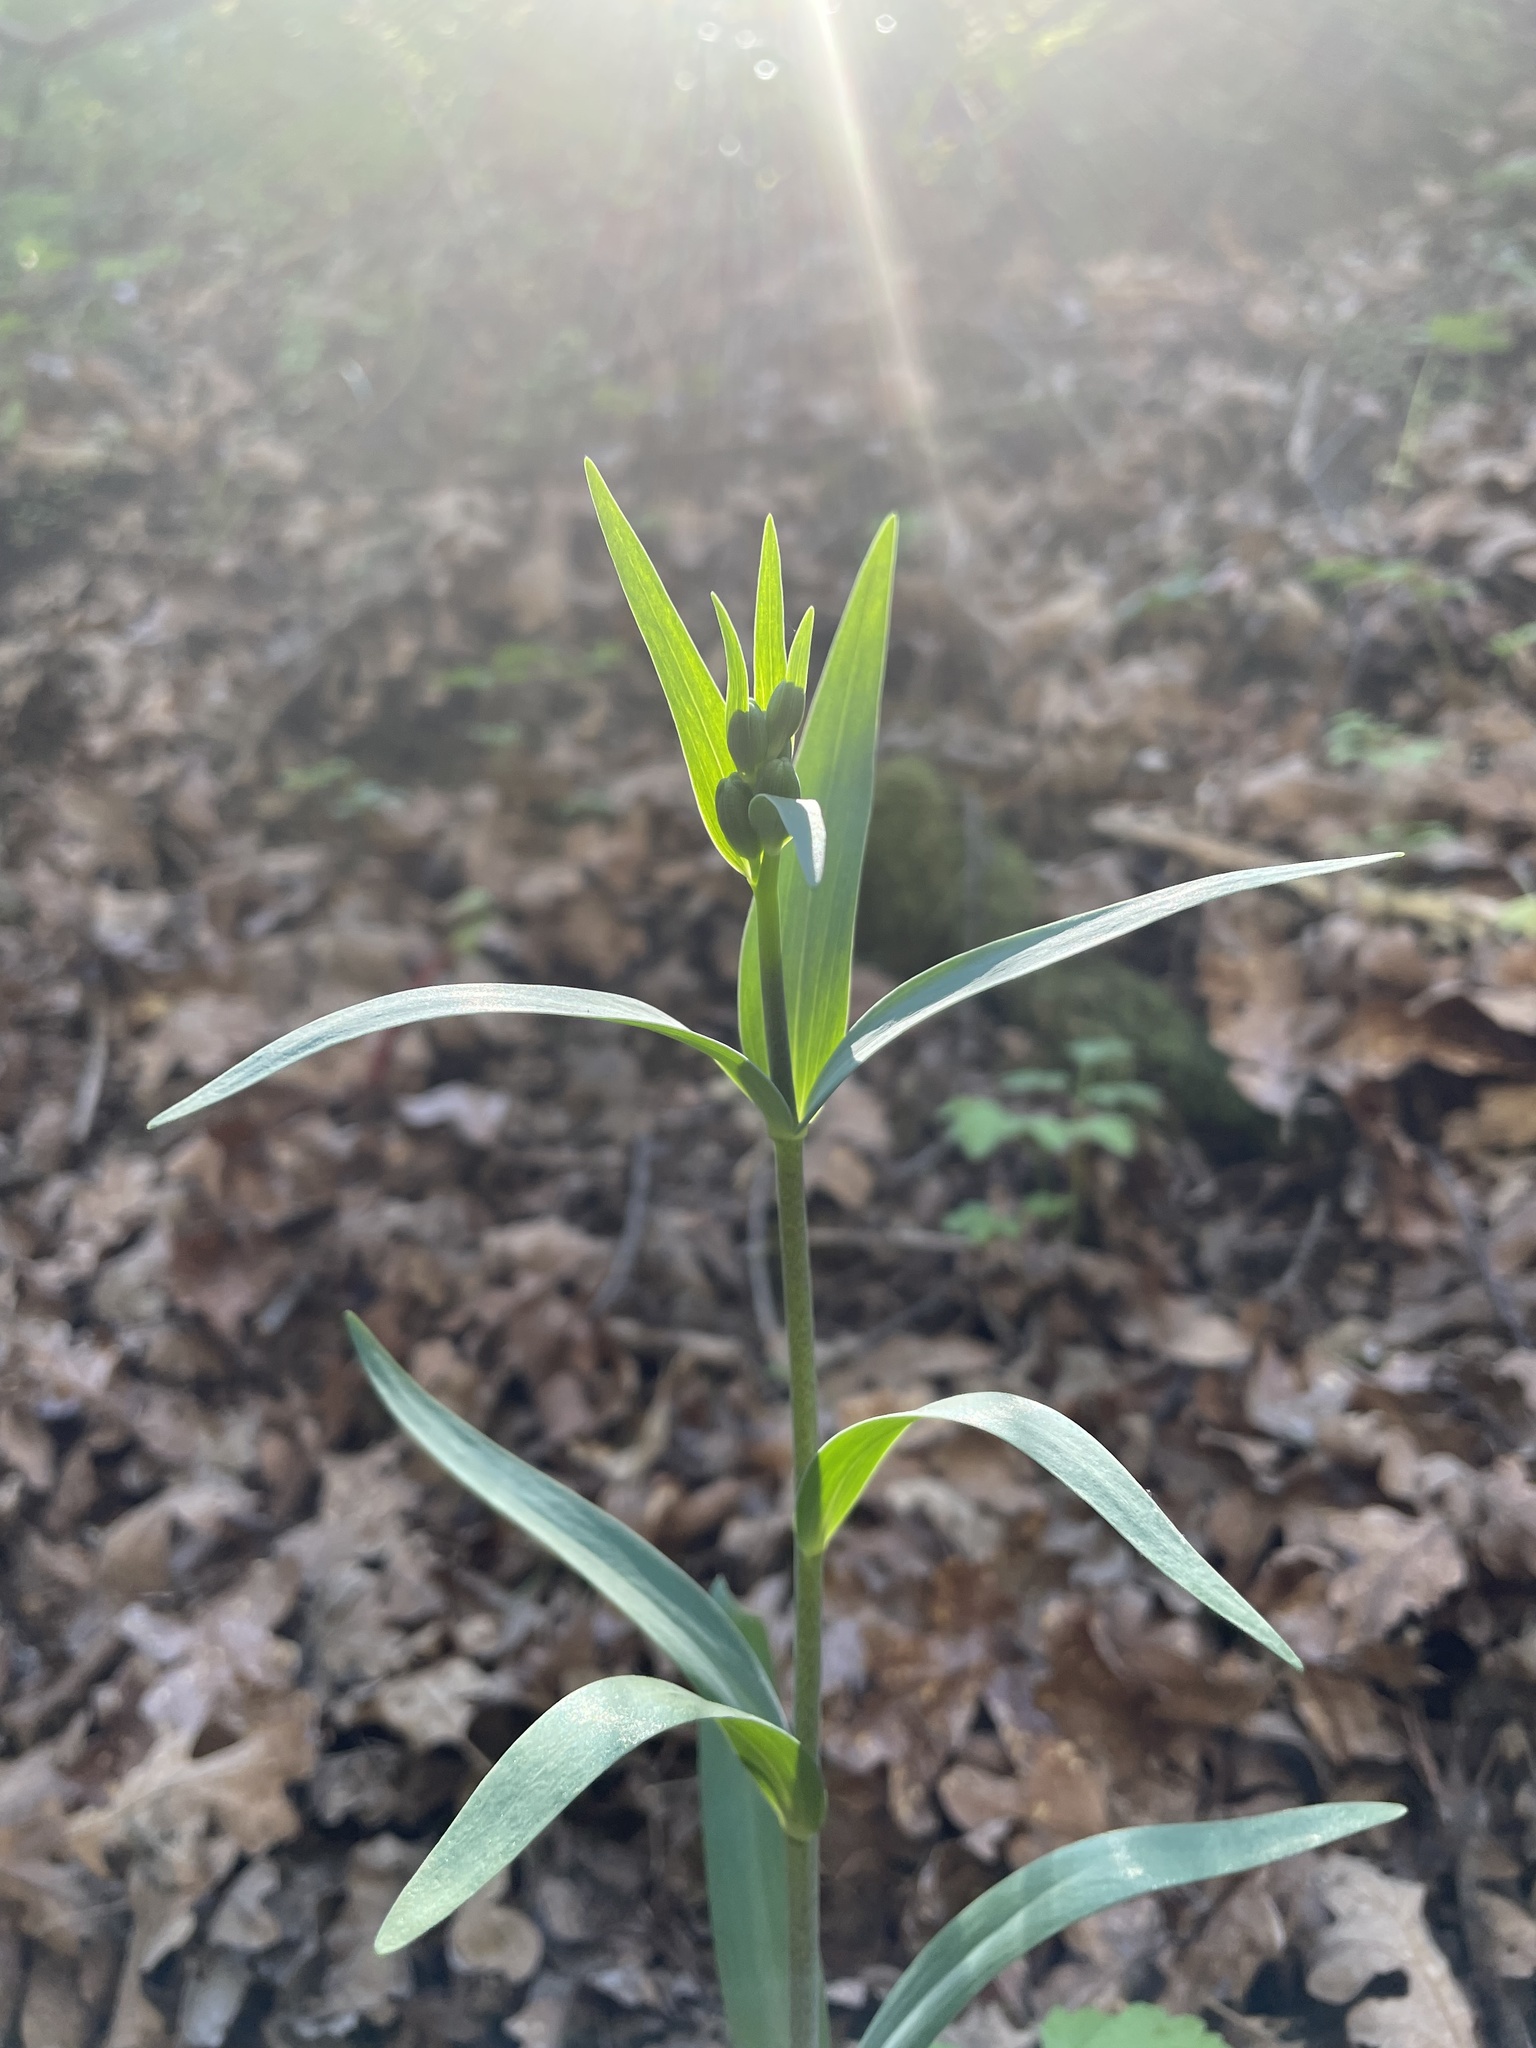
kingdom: Plantae
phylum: Tracheophyta
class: Liliopsida
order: Liliales
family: Liliaceae
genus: Fritillaria
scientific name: Fritillaria affinis
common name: Ojai fritillary
